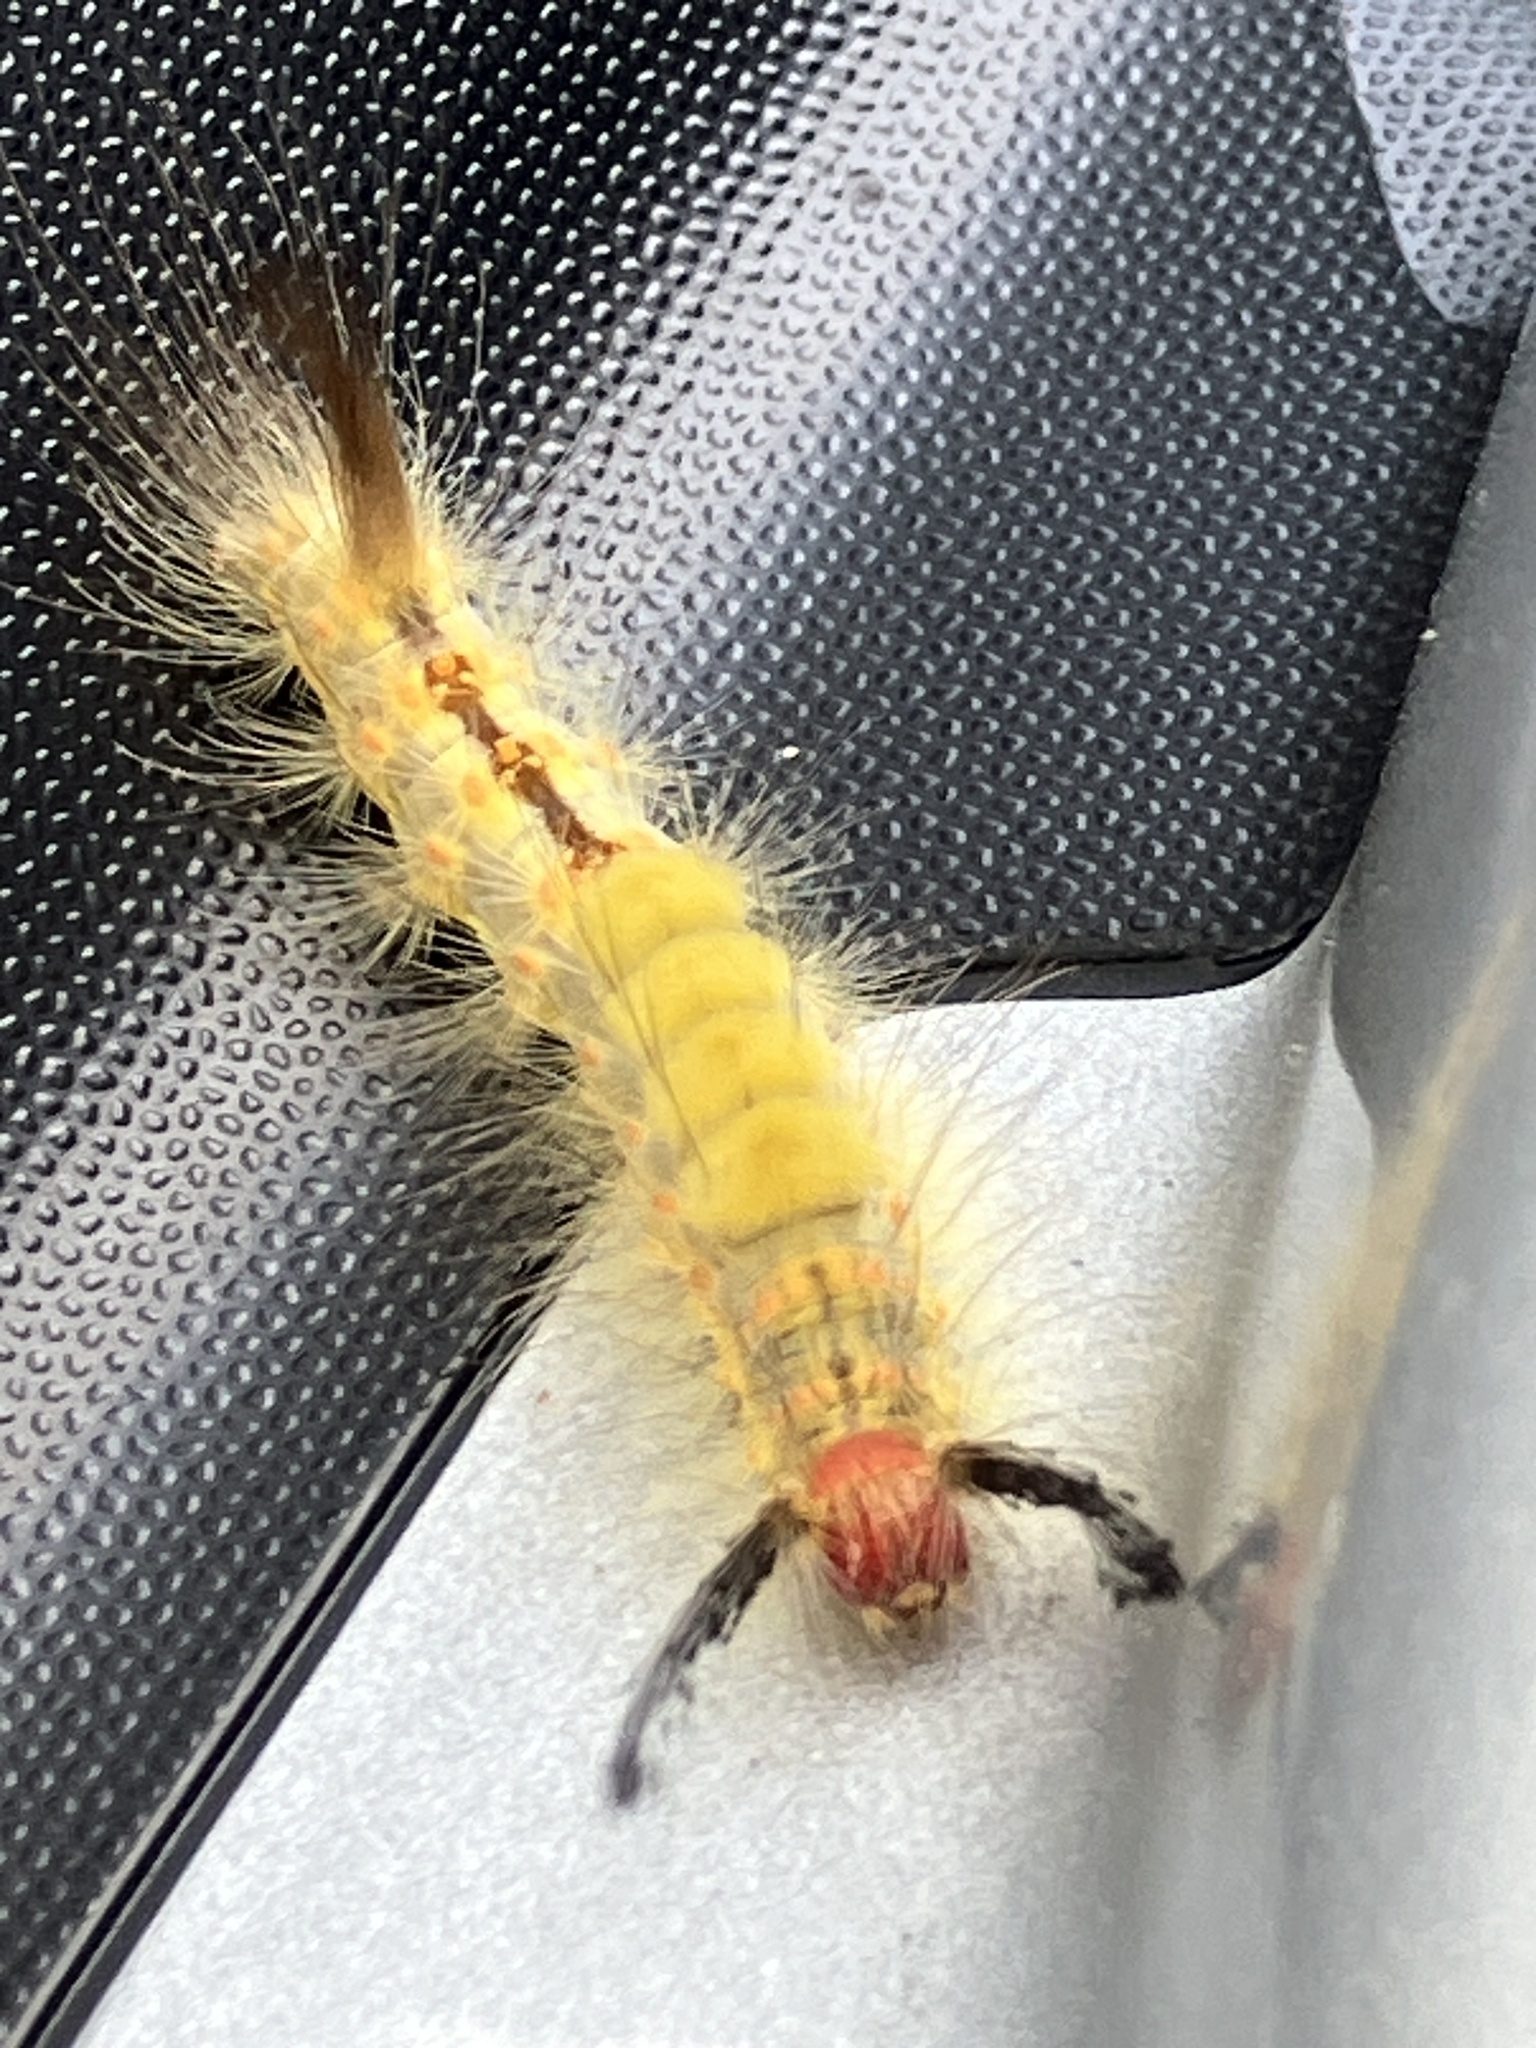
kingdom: Animalia
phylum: Arthropoda
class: Insecta
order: Lepidoptera
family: Erebidae
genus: Orgyia
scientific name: Orgyia detrita
